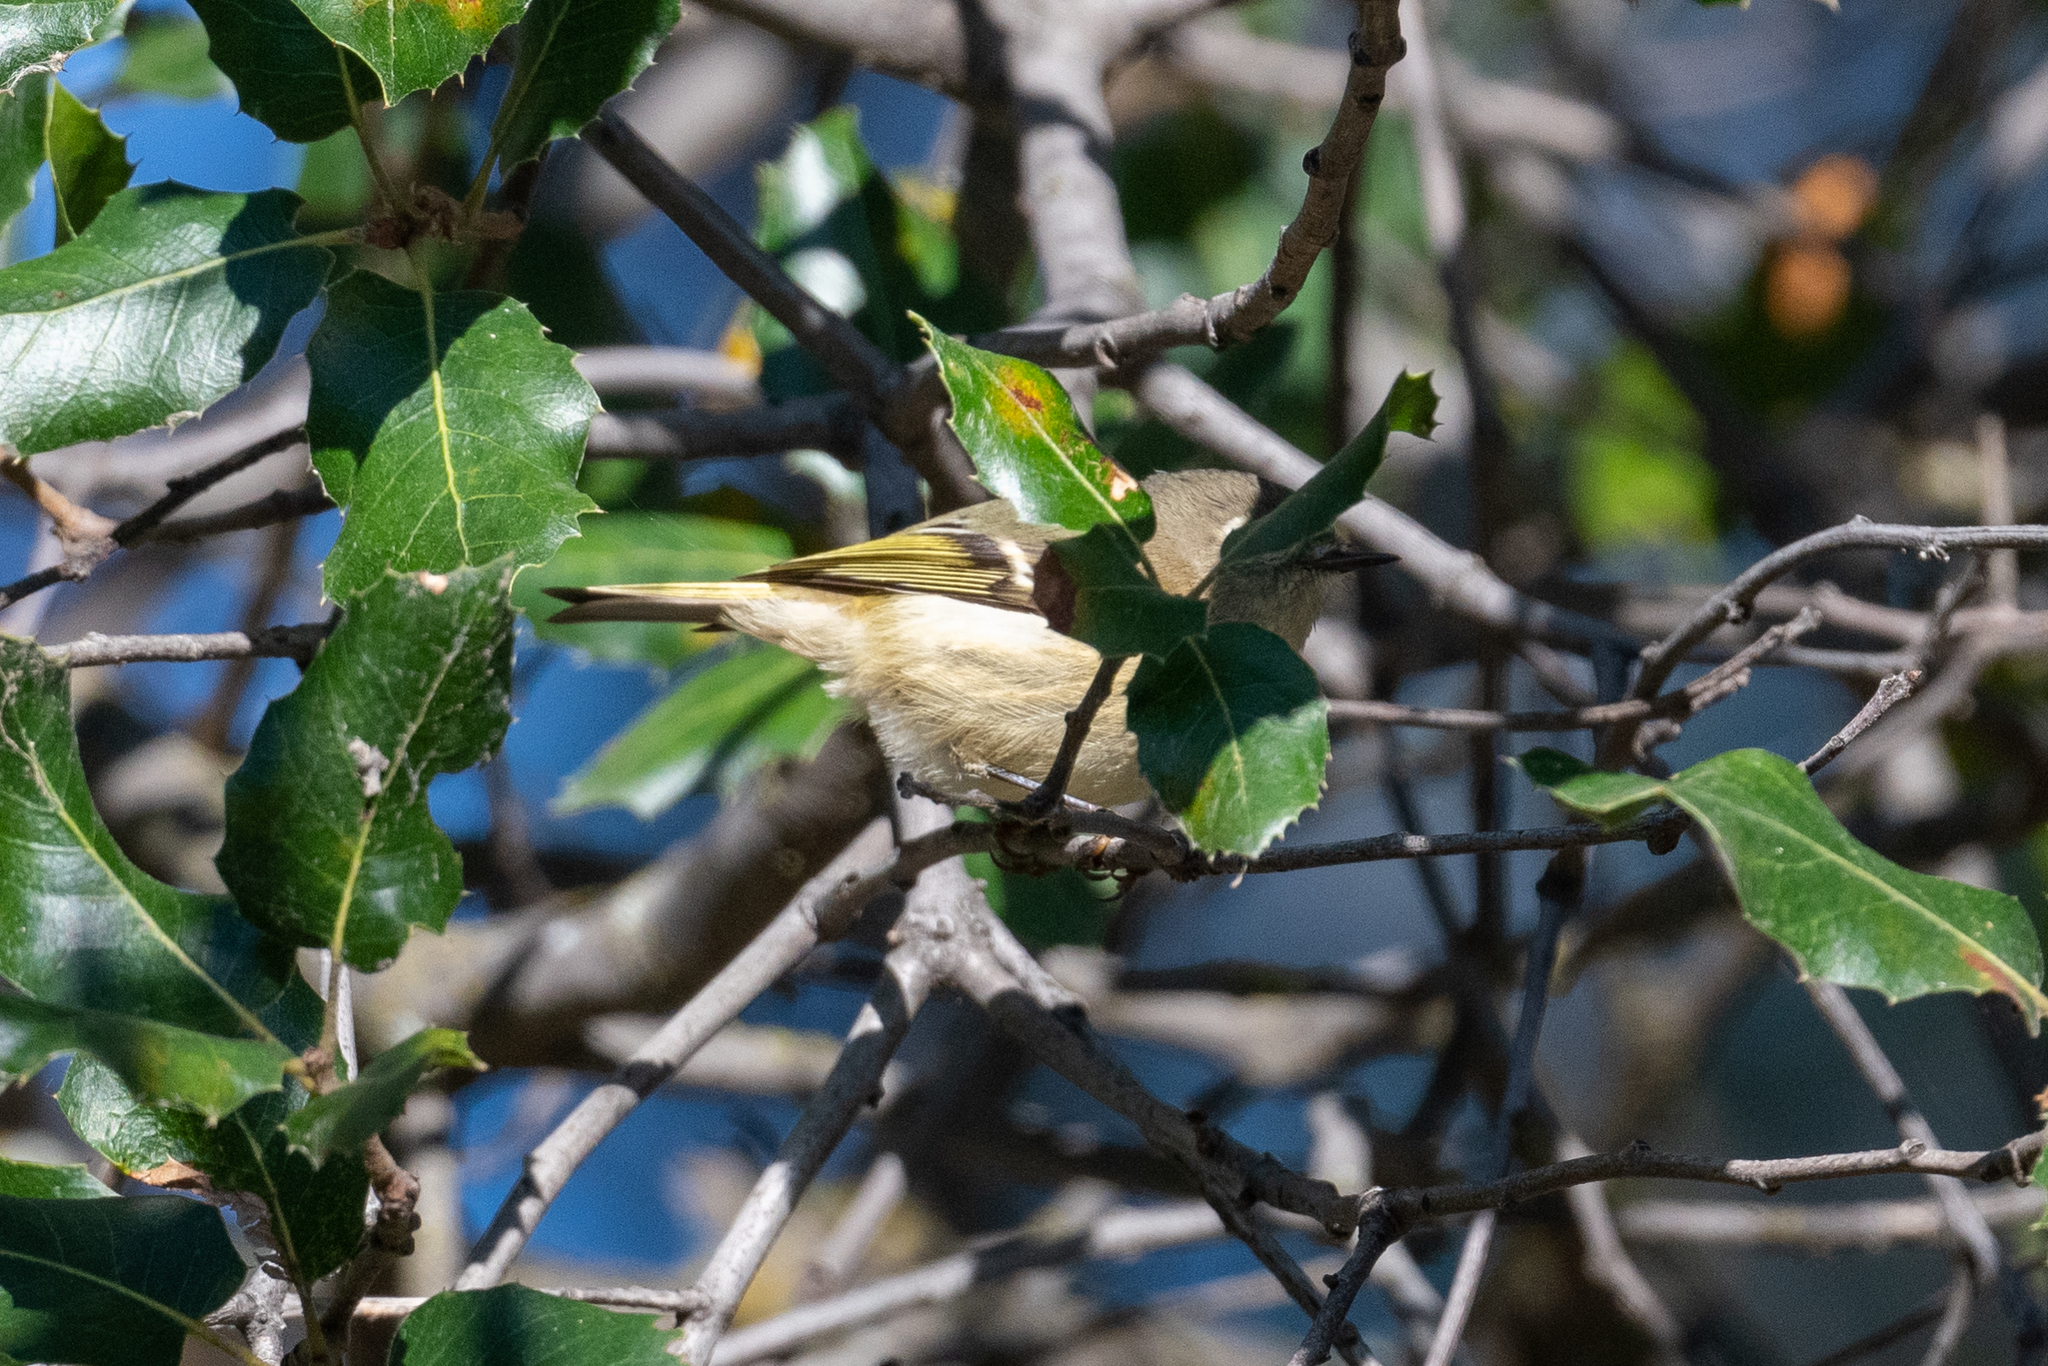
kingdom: Animalia
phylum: Chordata
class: Aves
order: Passeriformes
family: Regulidae
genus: Regulus
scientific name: Regulus calendula
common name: Ruby-crowned kinglet
